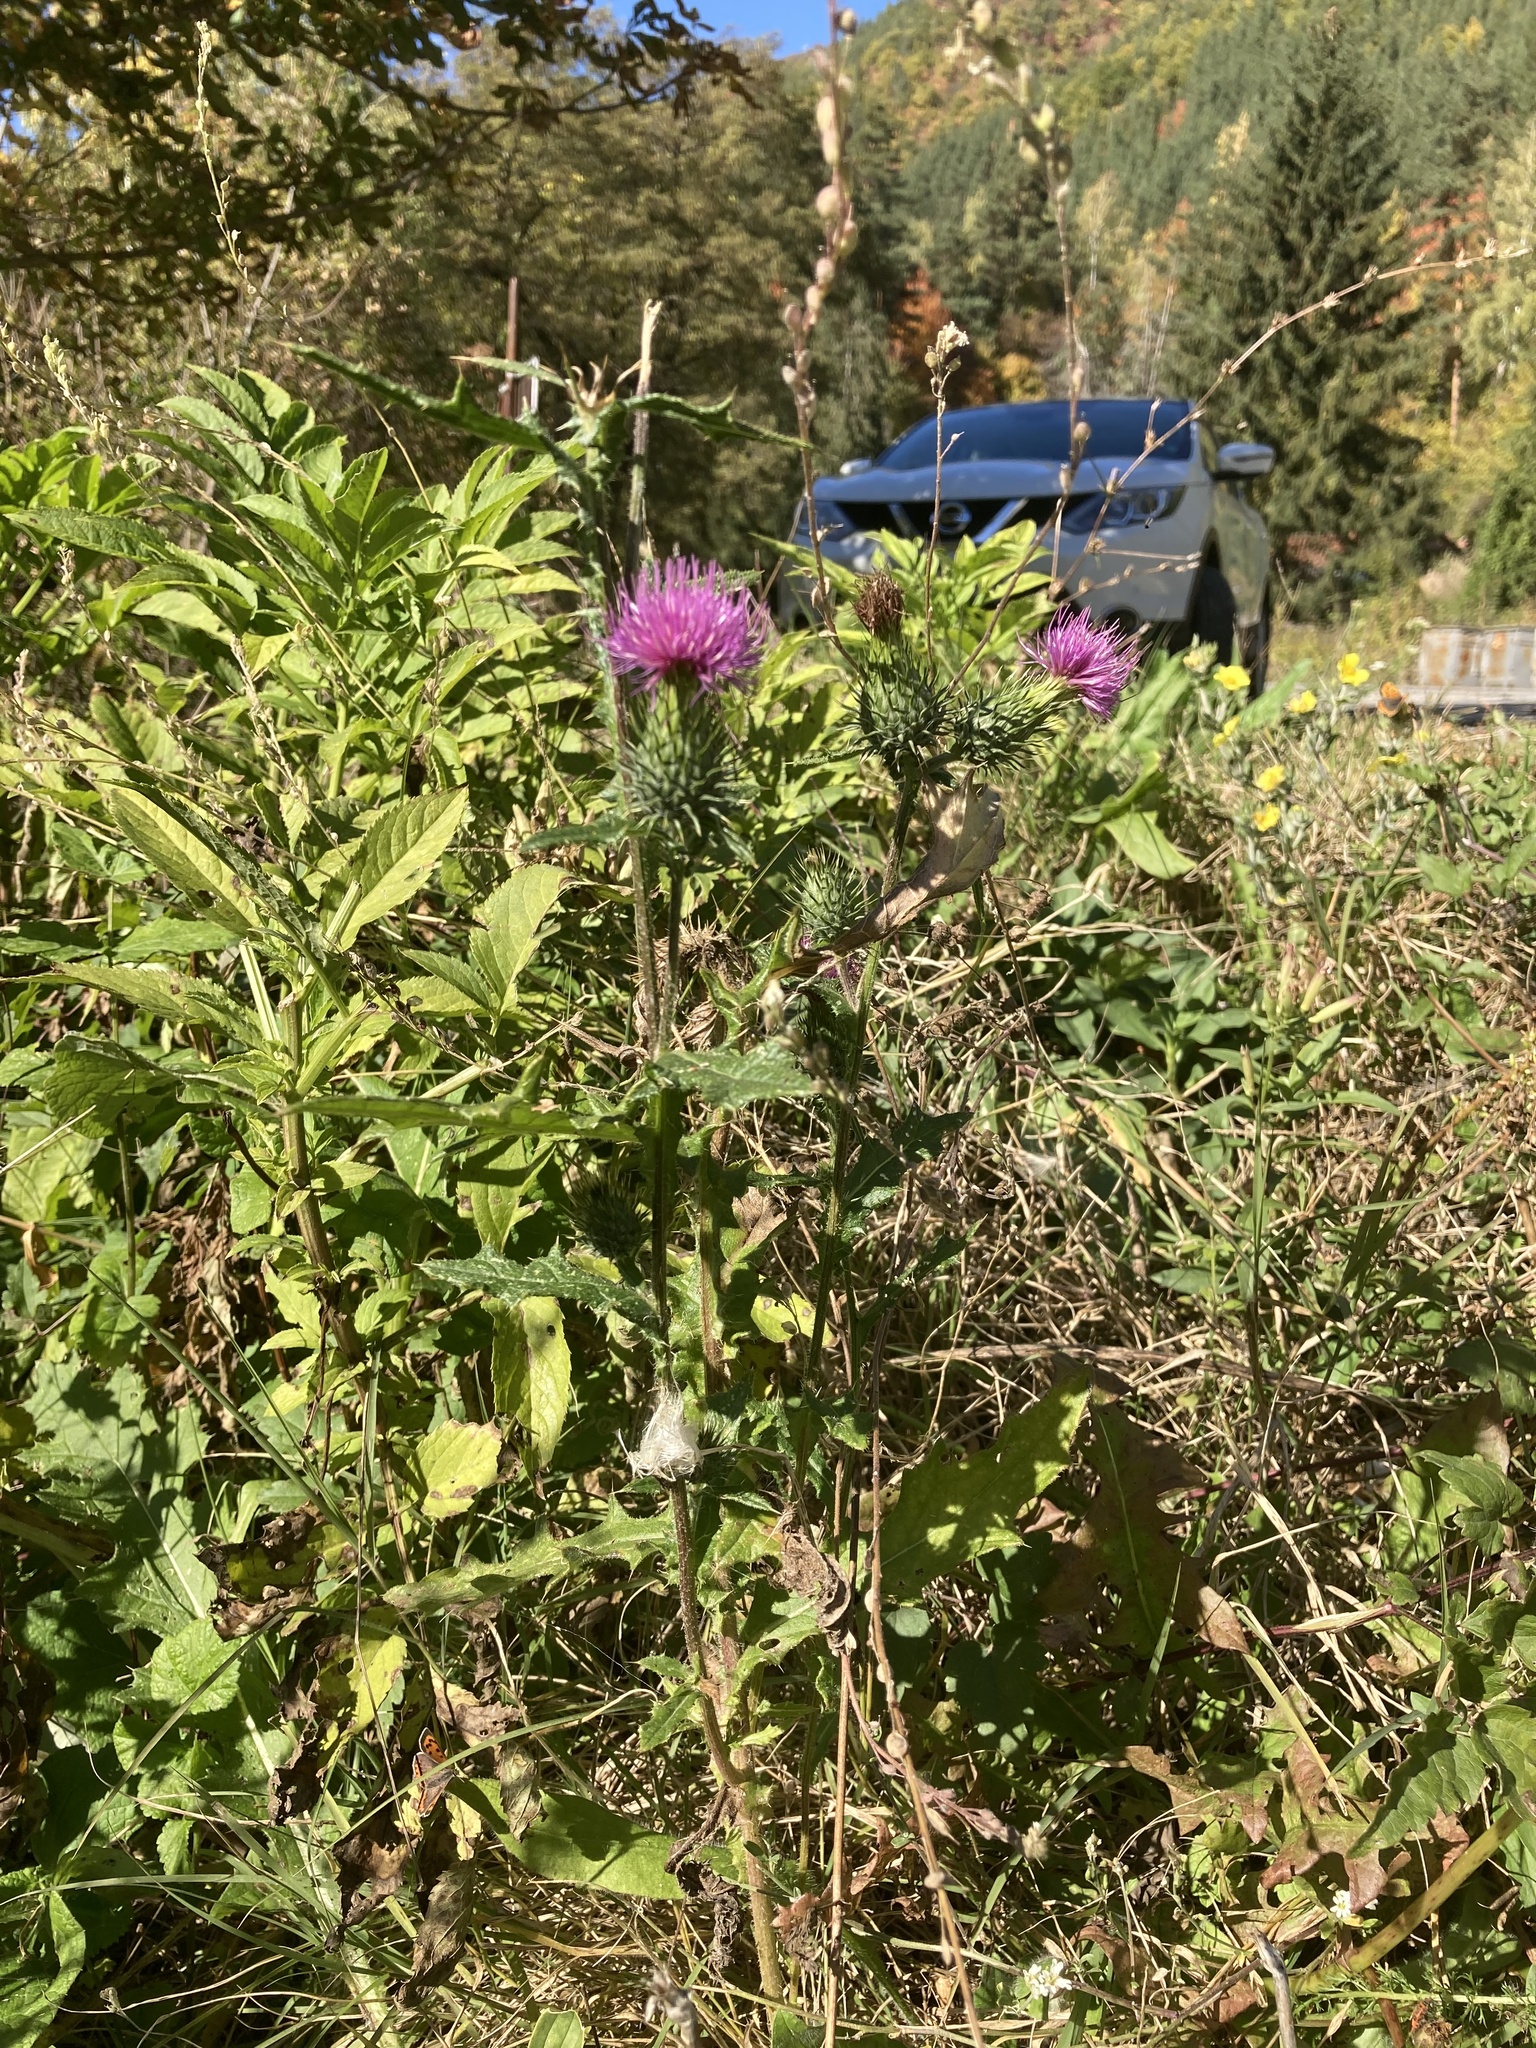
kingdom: Plantae
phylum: Tracheophyta
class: Magnoliopsida
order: Asterales
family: Asteraceae
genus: Cirsium
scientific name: Cirsium vulgare
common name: Bull thistle
